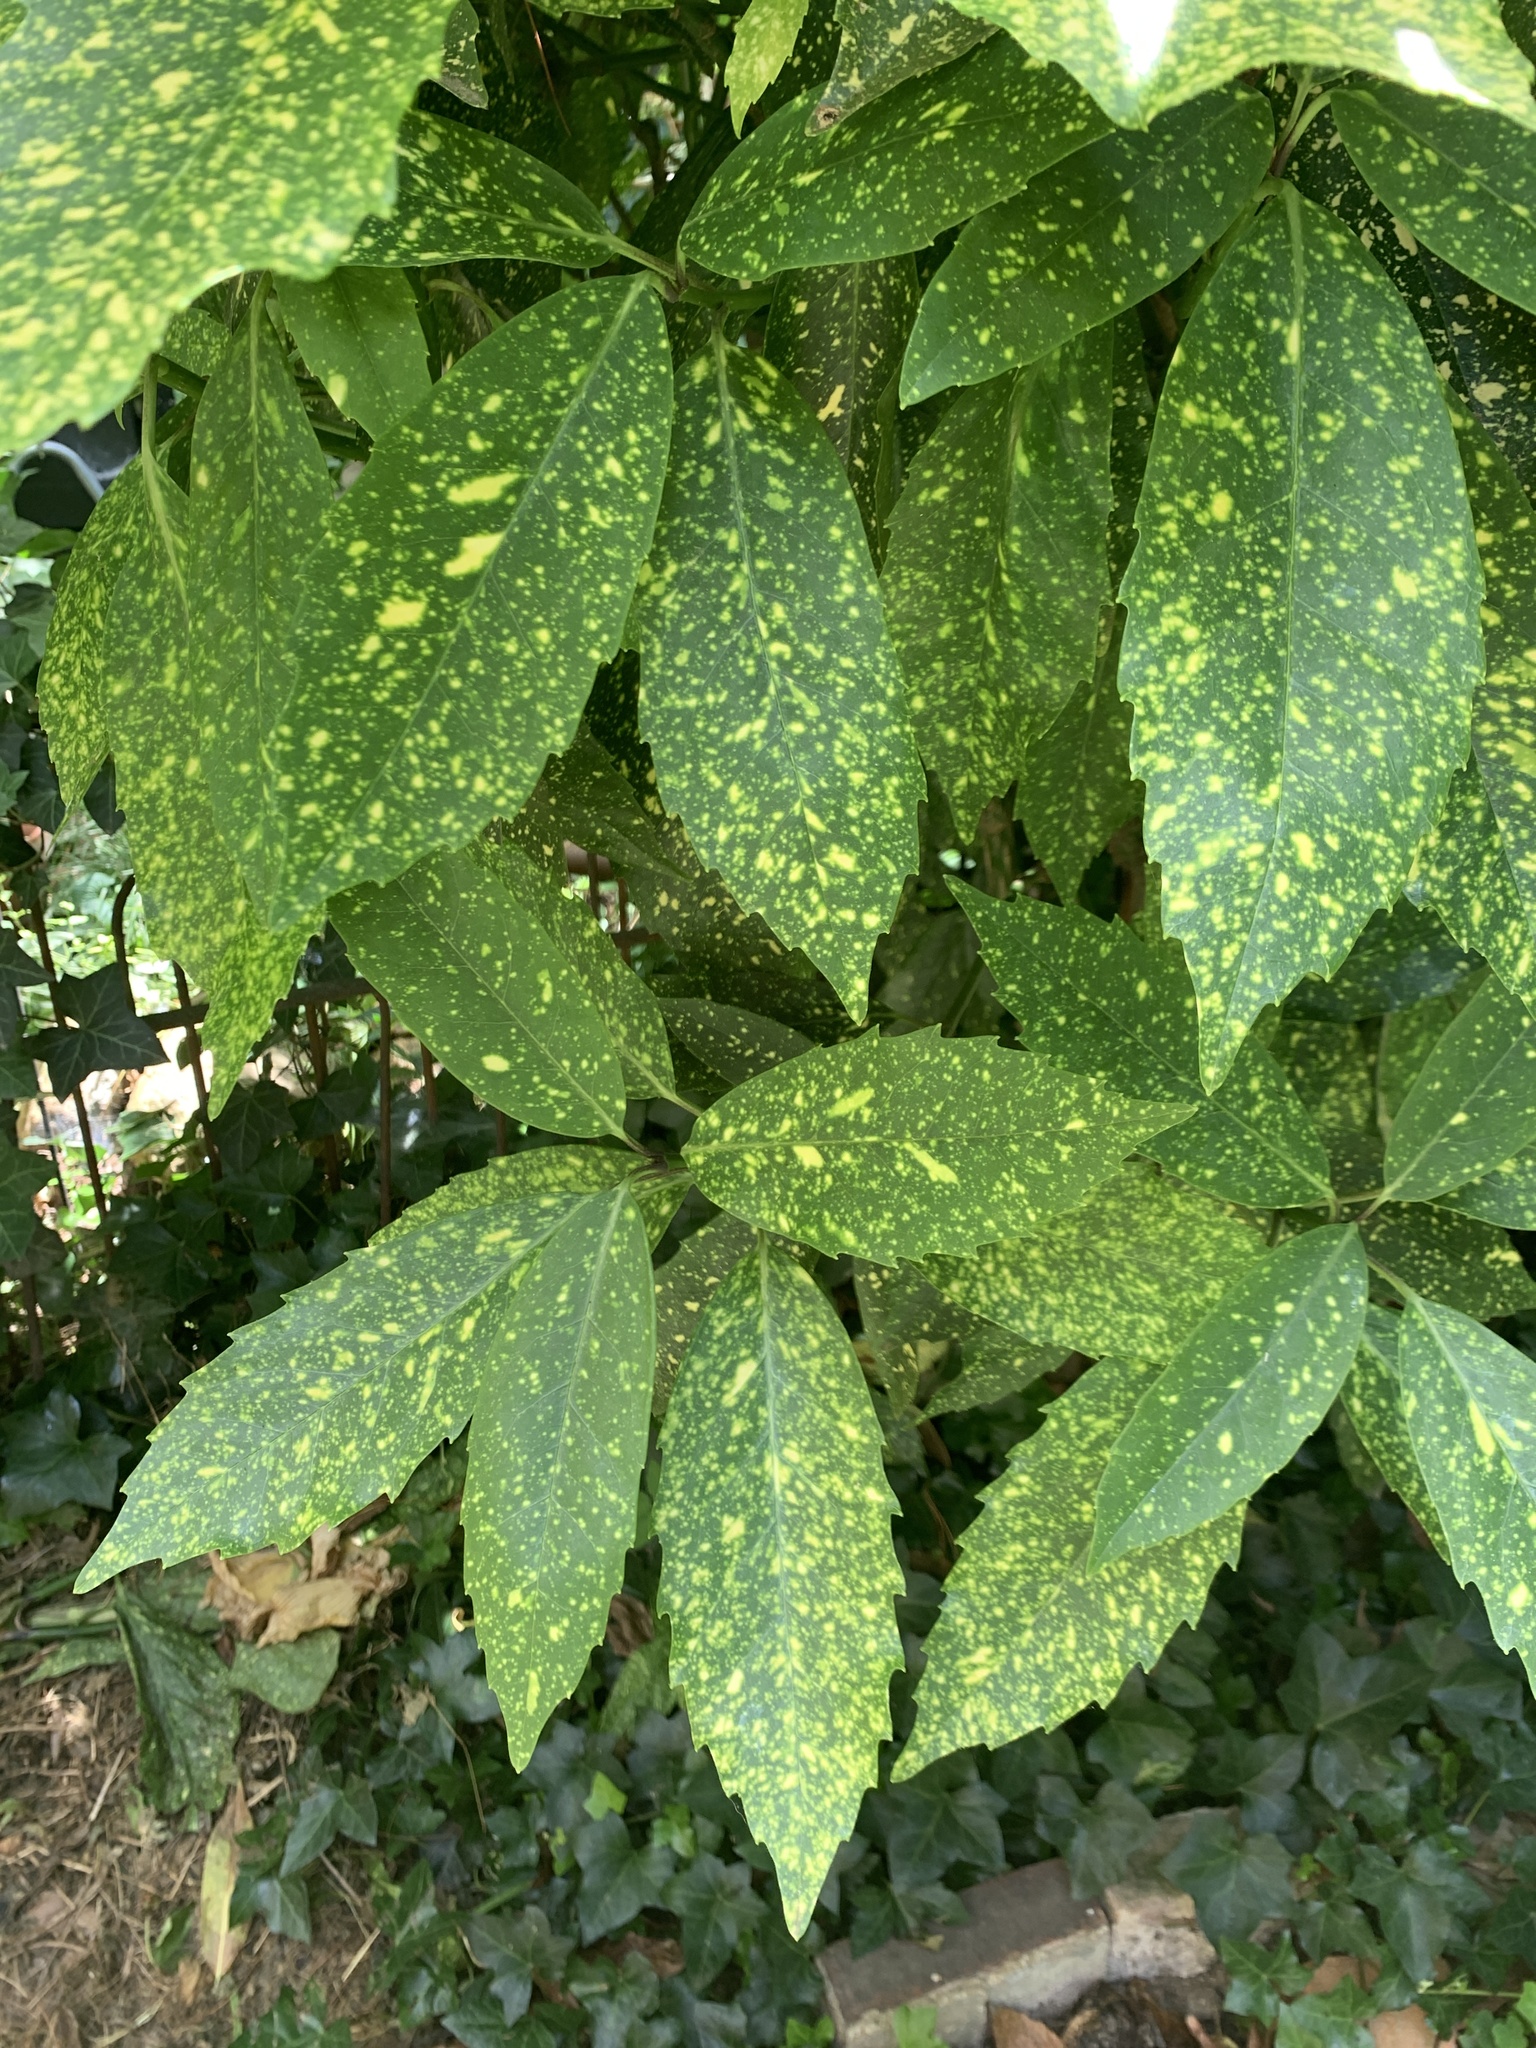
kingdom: Plantae
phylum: Tracheophyta
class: Magnoliopsida
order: Garryales
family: Garryaceae
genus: Aucuba
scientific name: Aucuba japonica
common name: Spotted-laurel
